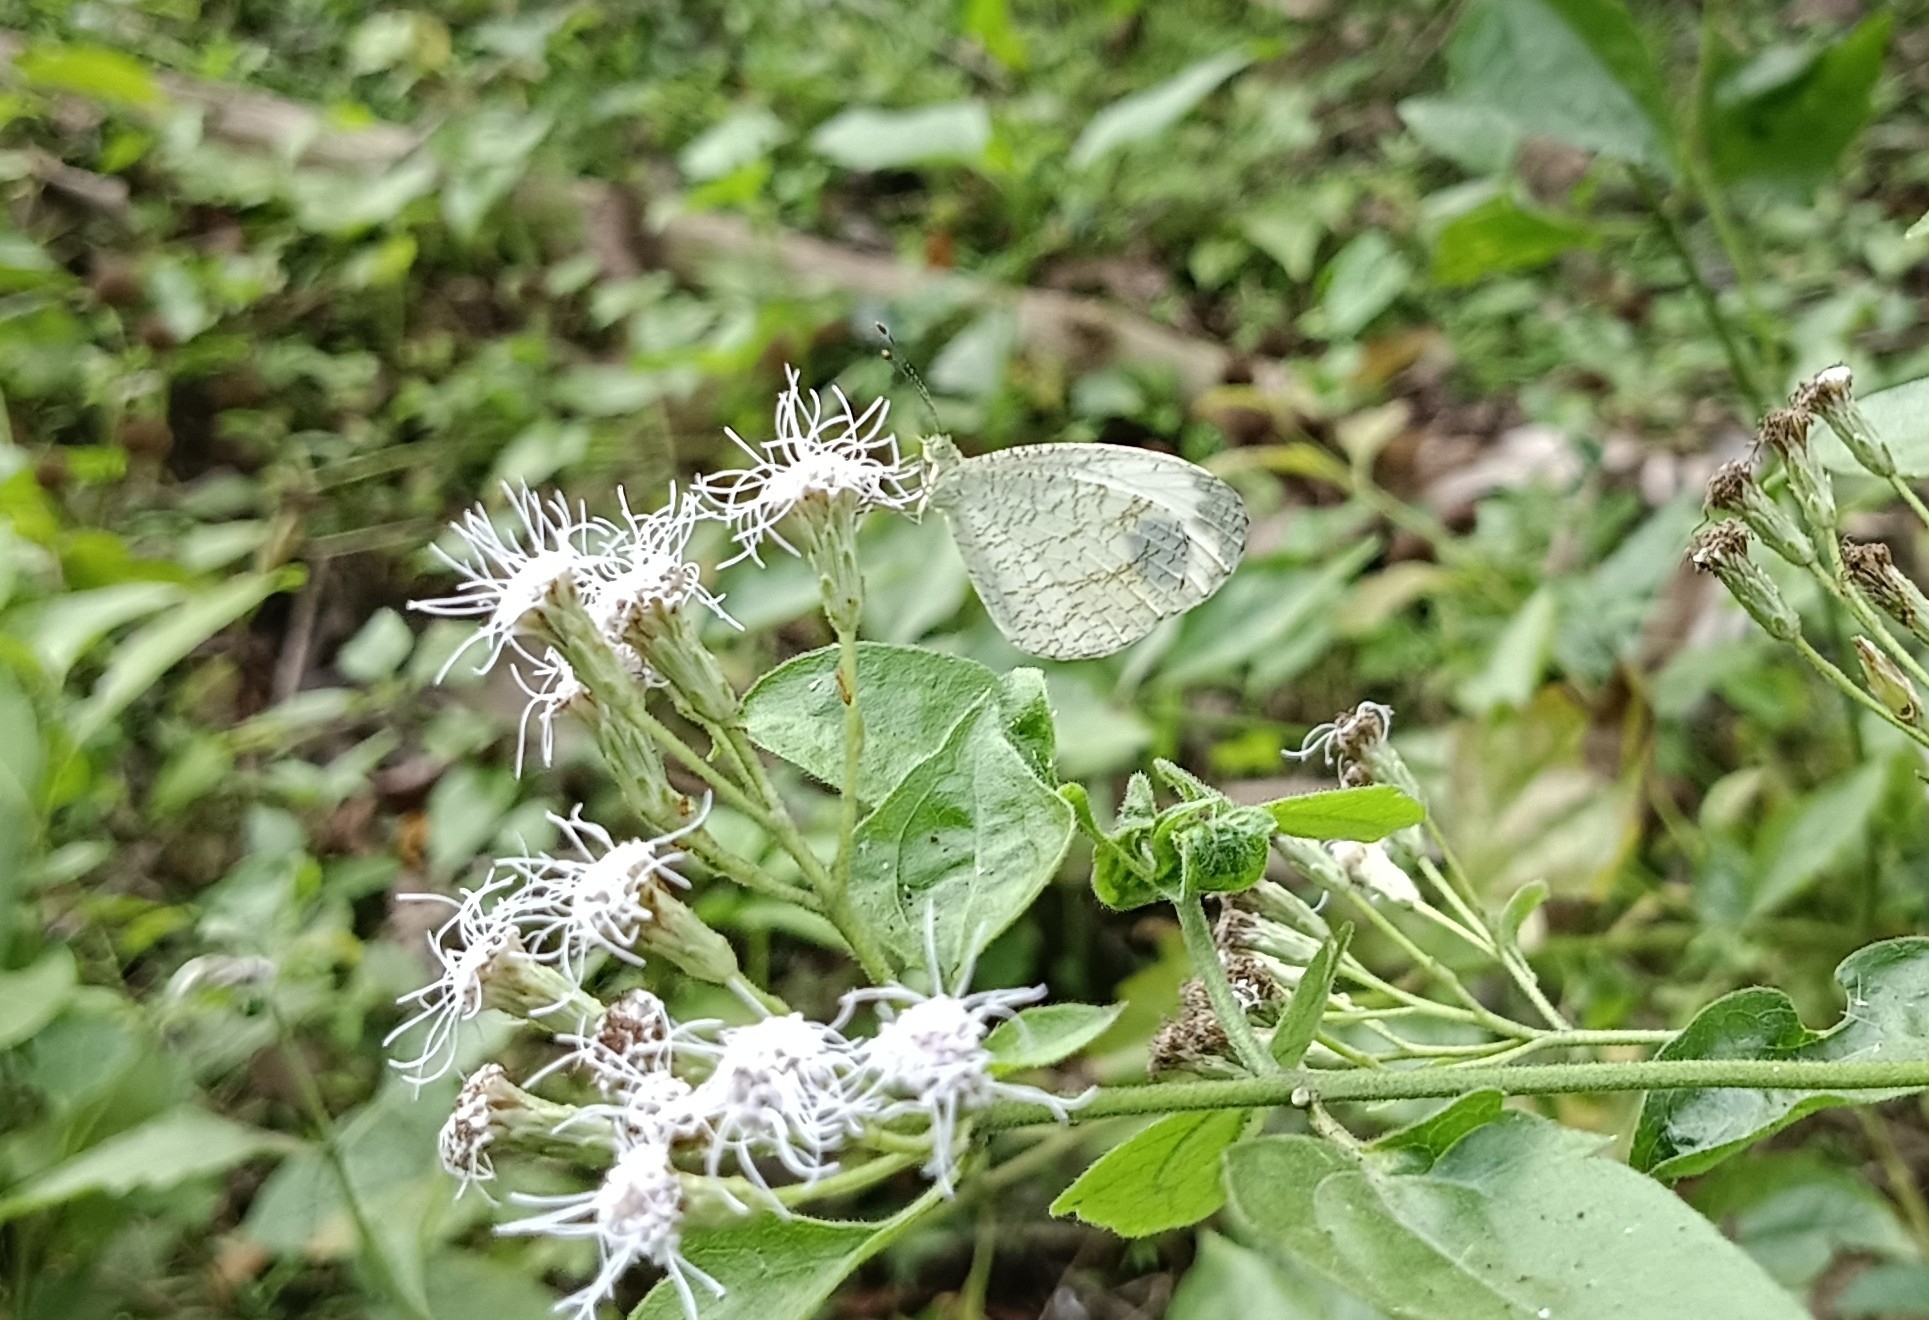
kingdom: Animalia
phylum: Arthropoda
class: Insecta
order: Lepidoptera
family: Pieridae
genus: Leptosia
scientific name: Leptosia nina
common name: Psyche
